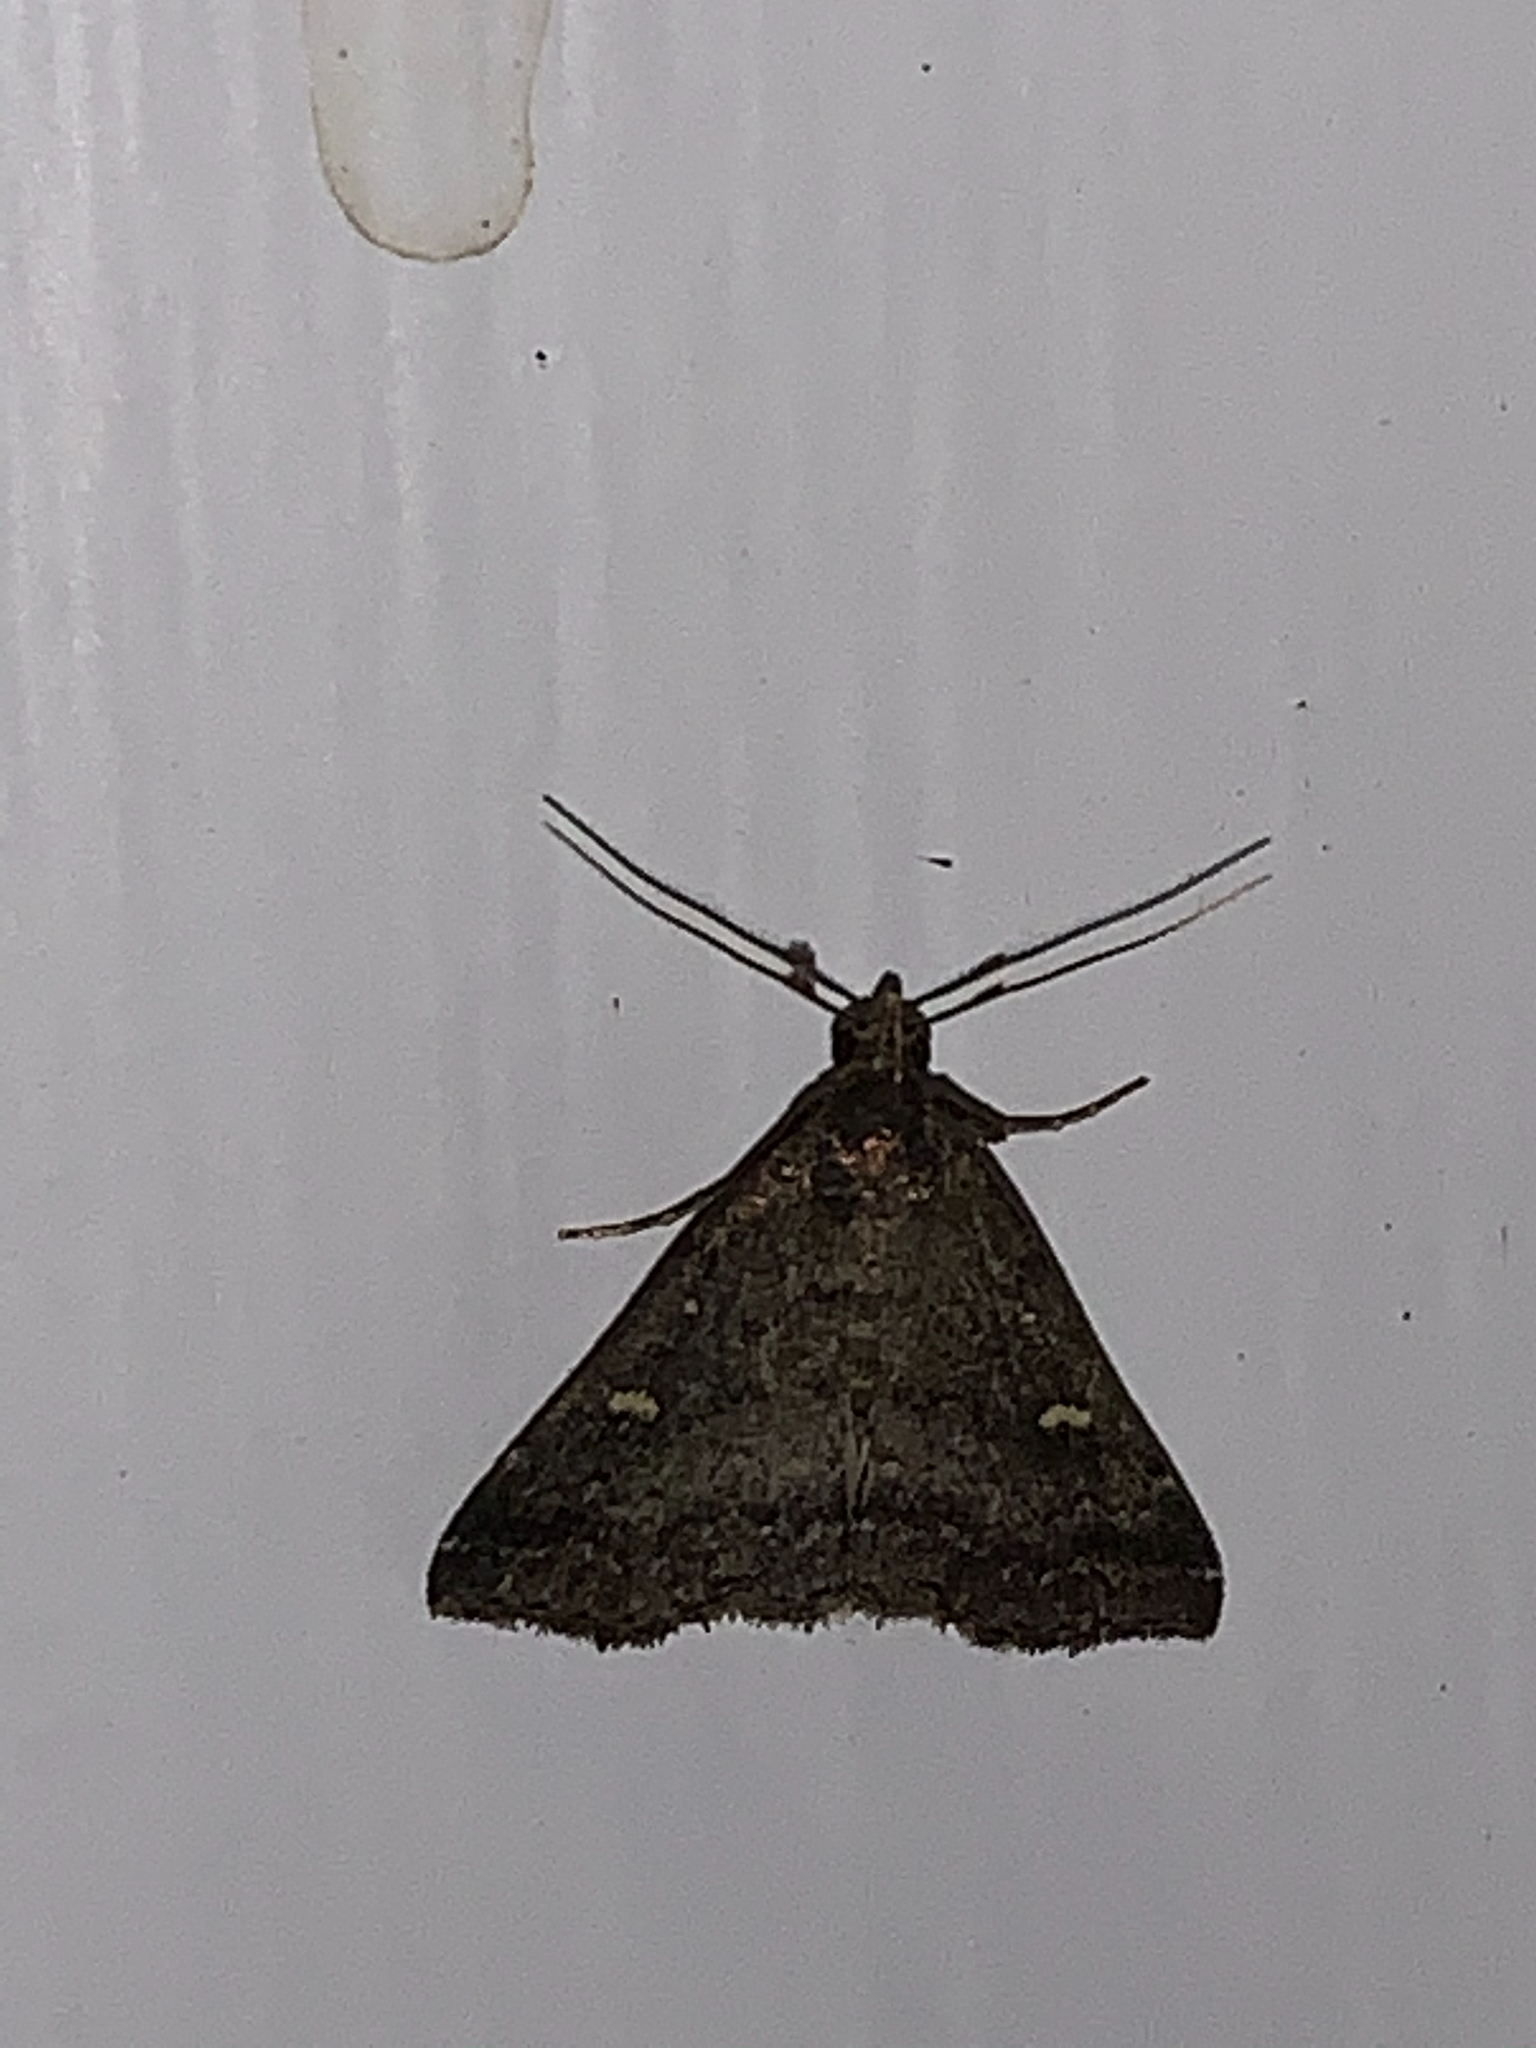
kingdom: Animalia
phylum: Arthropoda
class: Insecta
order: Lepidoptera
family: Erebidae
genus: Tetanolita
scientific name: Tetanolita mynesalis
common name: Smoky tetanolita moth
